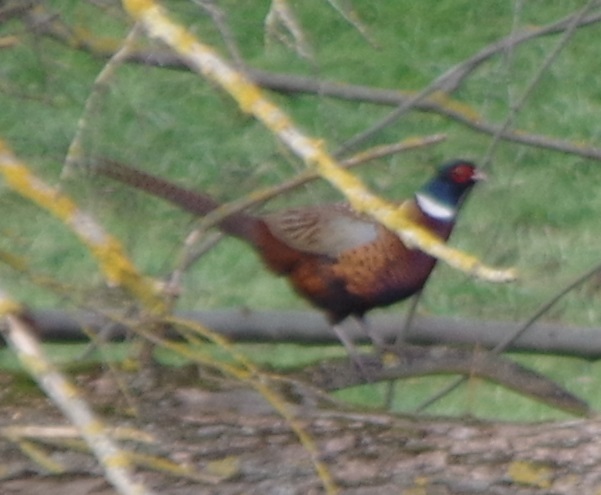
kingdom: Animalia
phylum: Chordata
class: Aves
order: Galliformes
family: Phasianidae
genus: Phasianus
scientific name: Phasianus colchicus
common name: Common pheasant
